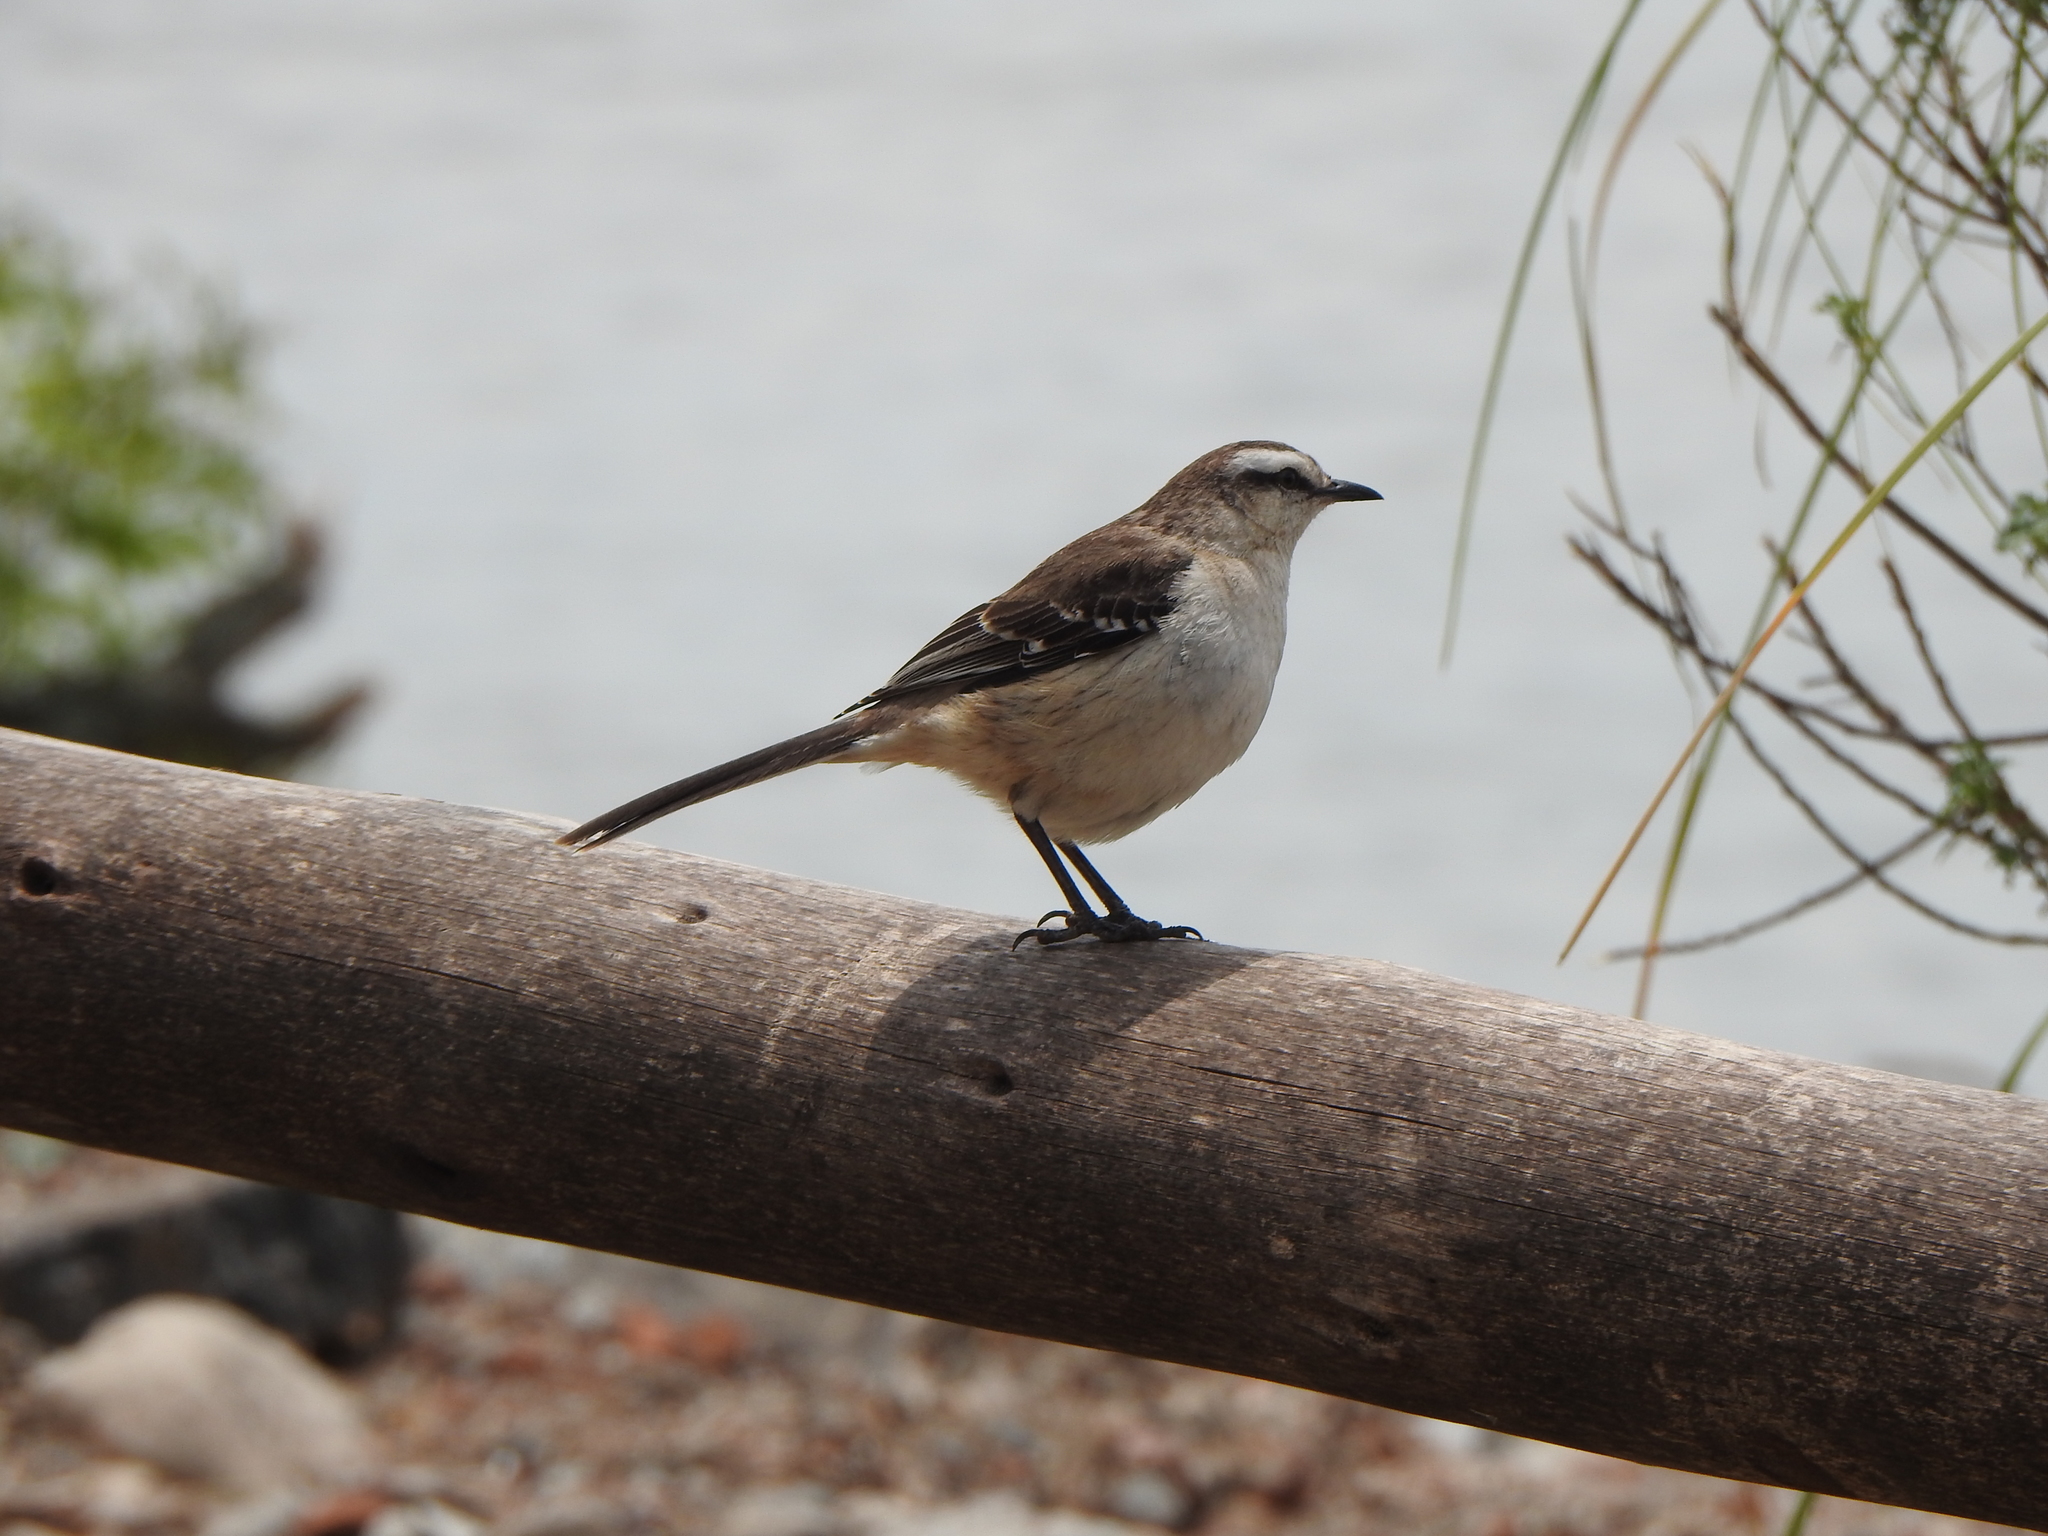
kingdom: Animalia
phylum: Chordata
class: Aves
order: Passeriformes
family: Mimidae
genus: Mimus
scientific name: Mimus saturninus
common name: Chalk-browed mockingbird
